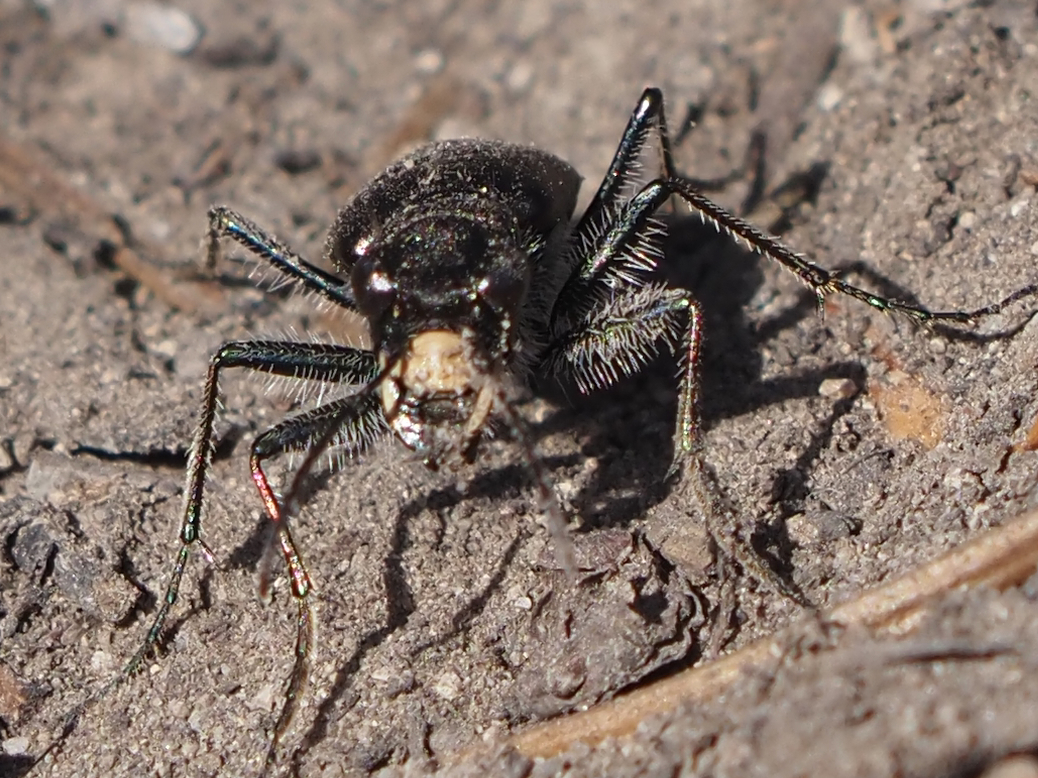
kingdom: Animalia
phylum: Arthropoda
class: Insecta
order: Coleoptera
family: Carabidae
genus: Cicindela
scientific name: Cicindela longilabris
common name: Boreal long-lipped tiger beetle
